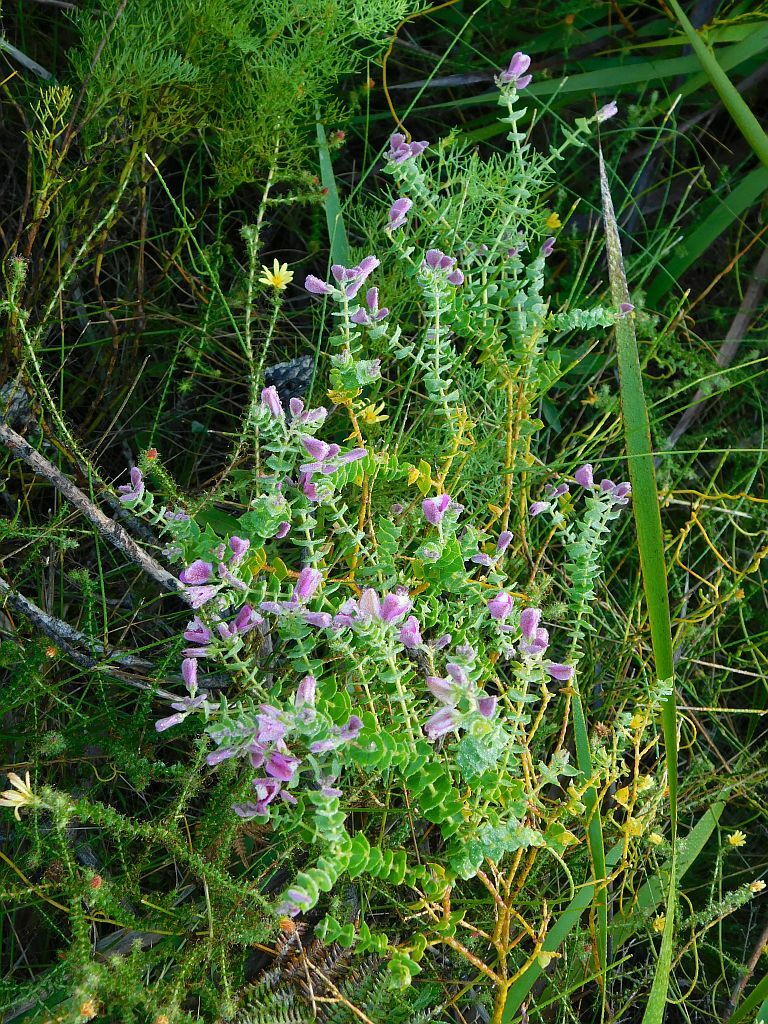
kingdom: Plantae
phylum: Tracheophyta
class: Magnoliopsida
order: Fabales
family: Polygalaceae
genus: Polygala
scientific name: Polygala fruticosa
